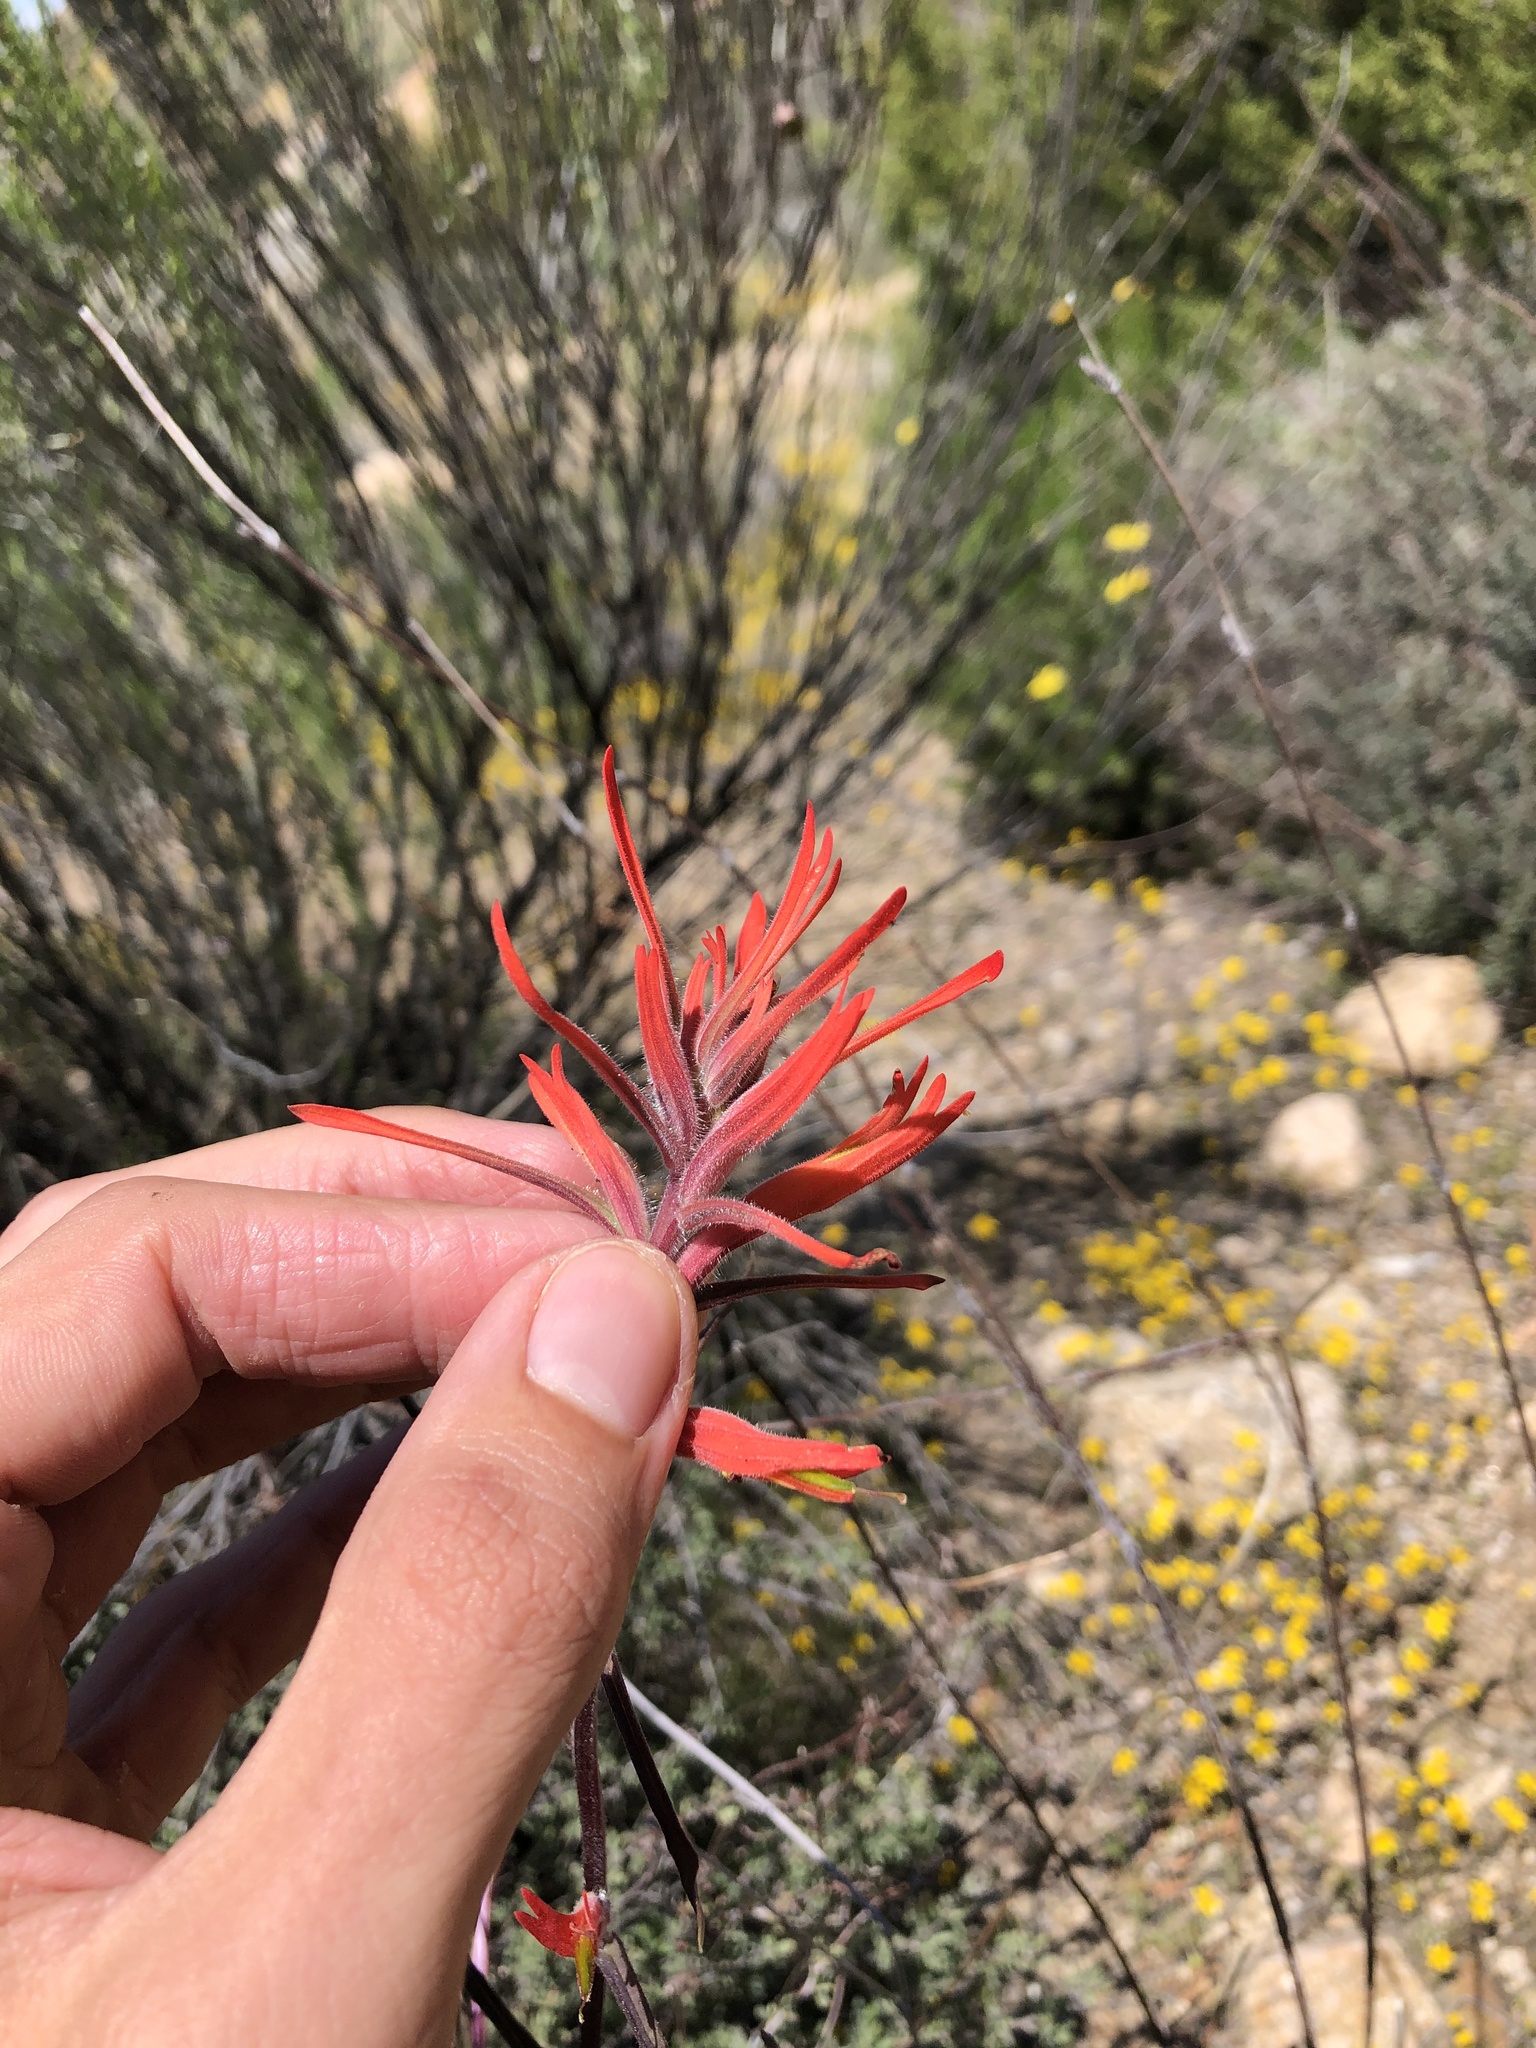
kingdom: Plantae
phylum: Tracheophyta
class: Magnoliopsida
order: Lamiales
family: Orobanchaceae
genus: Castilleja
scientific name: Castilleja subinclusa
